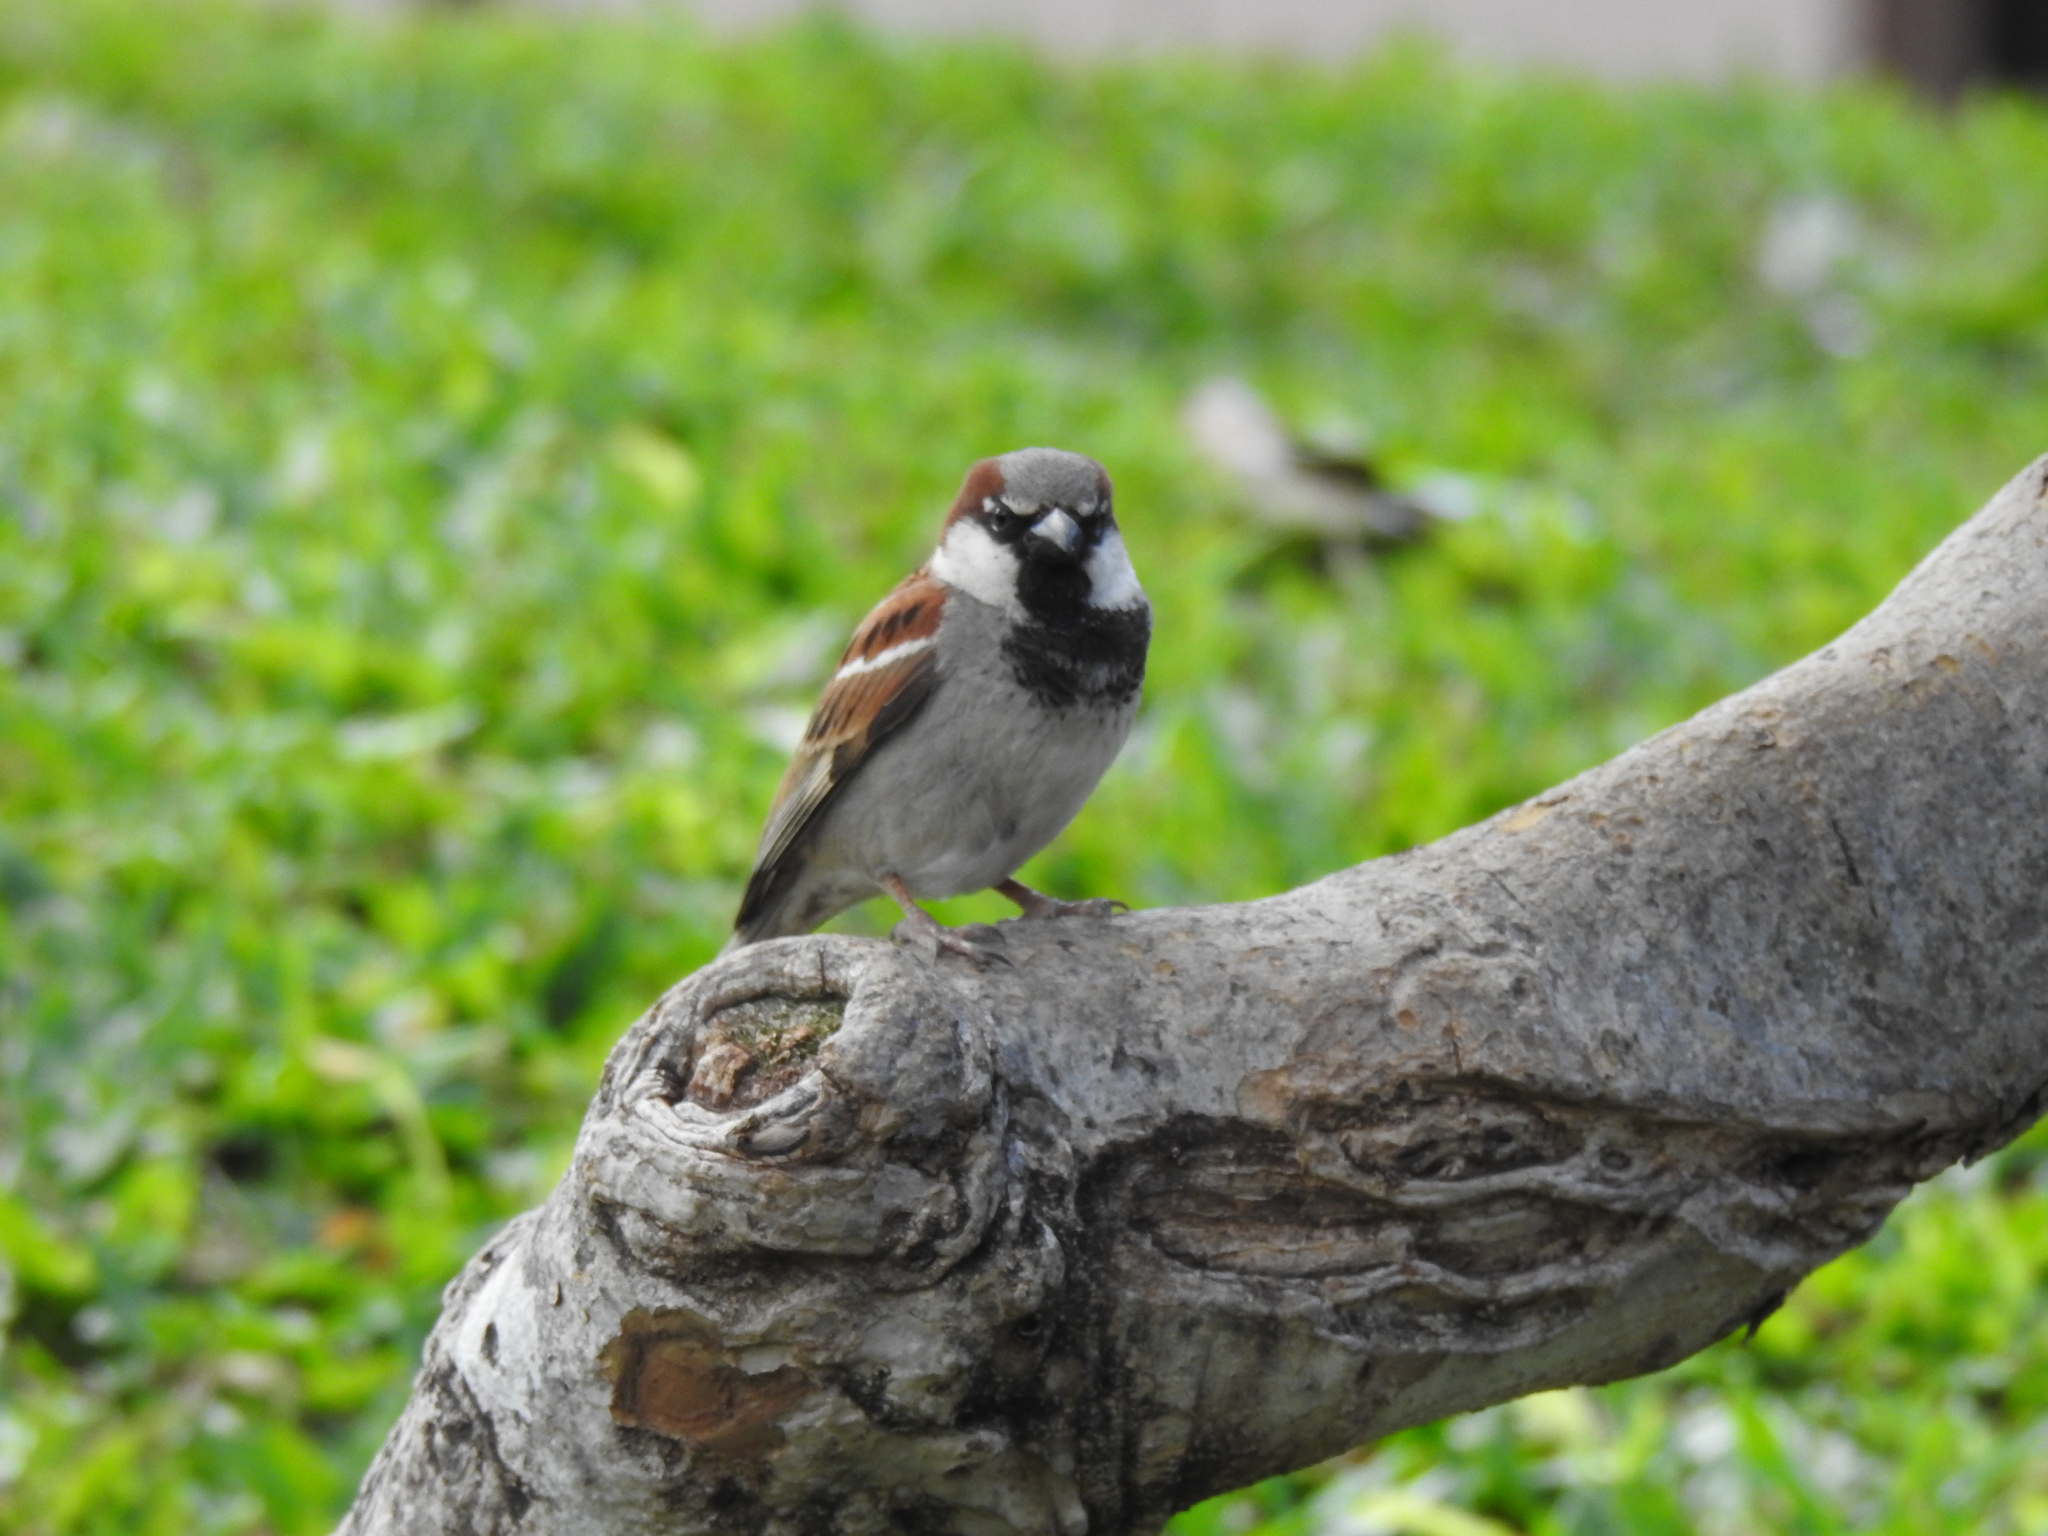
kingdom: Animalia
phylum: Chordata
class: Aves
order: Passeriformes
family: Passeridae
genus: Passer
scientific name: Passer domesticus
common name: House sparrow
